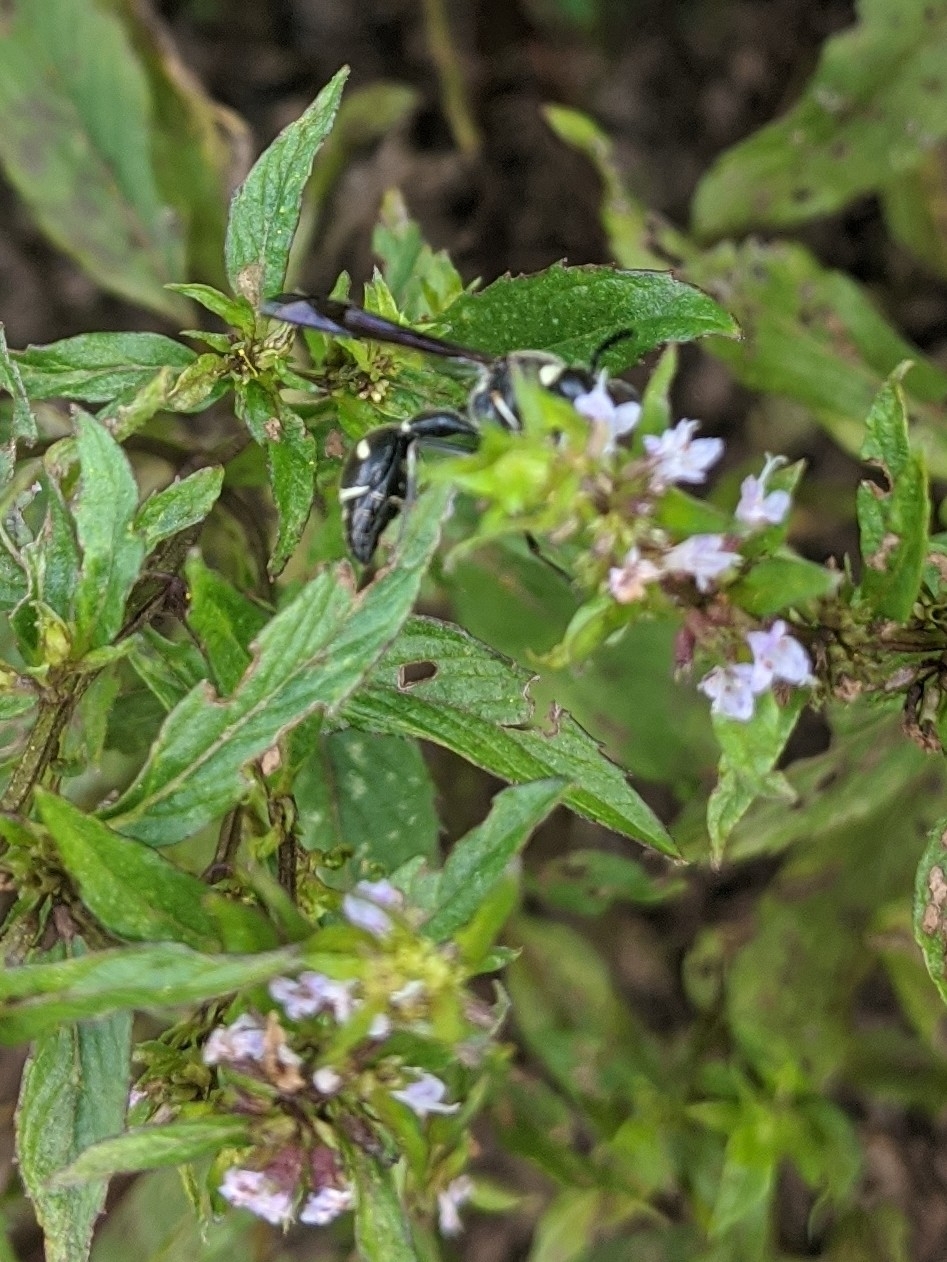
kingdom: Animalia
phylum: Arthropoda
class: Insecta
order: Hymenoptera
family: Vespidae
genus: Eumenes
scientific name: Eumenes fraternus
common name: Fraternal potter wasp
